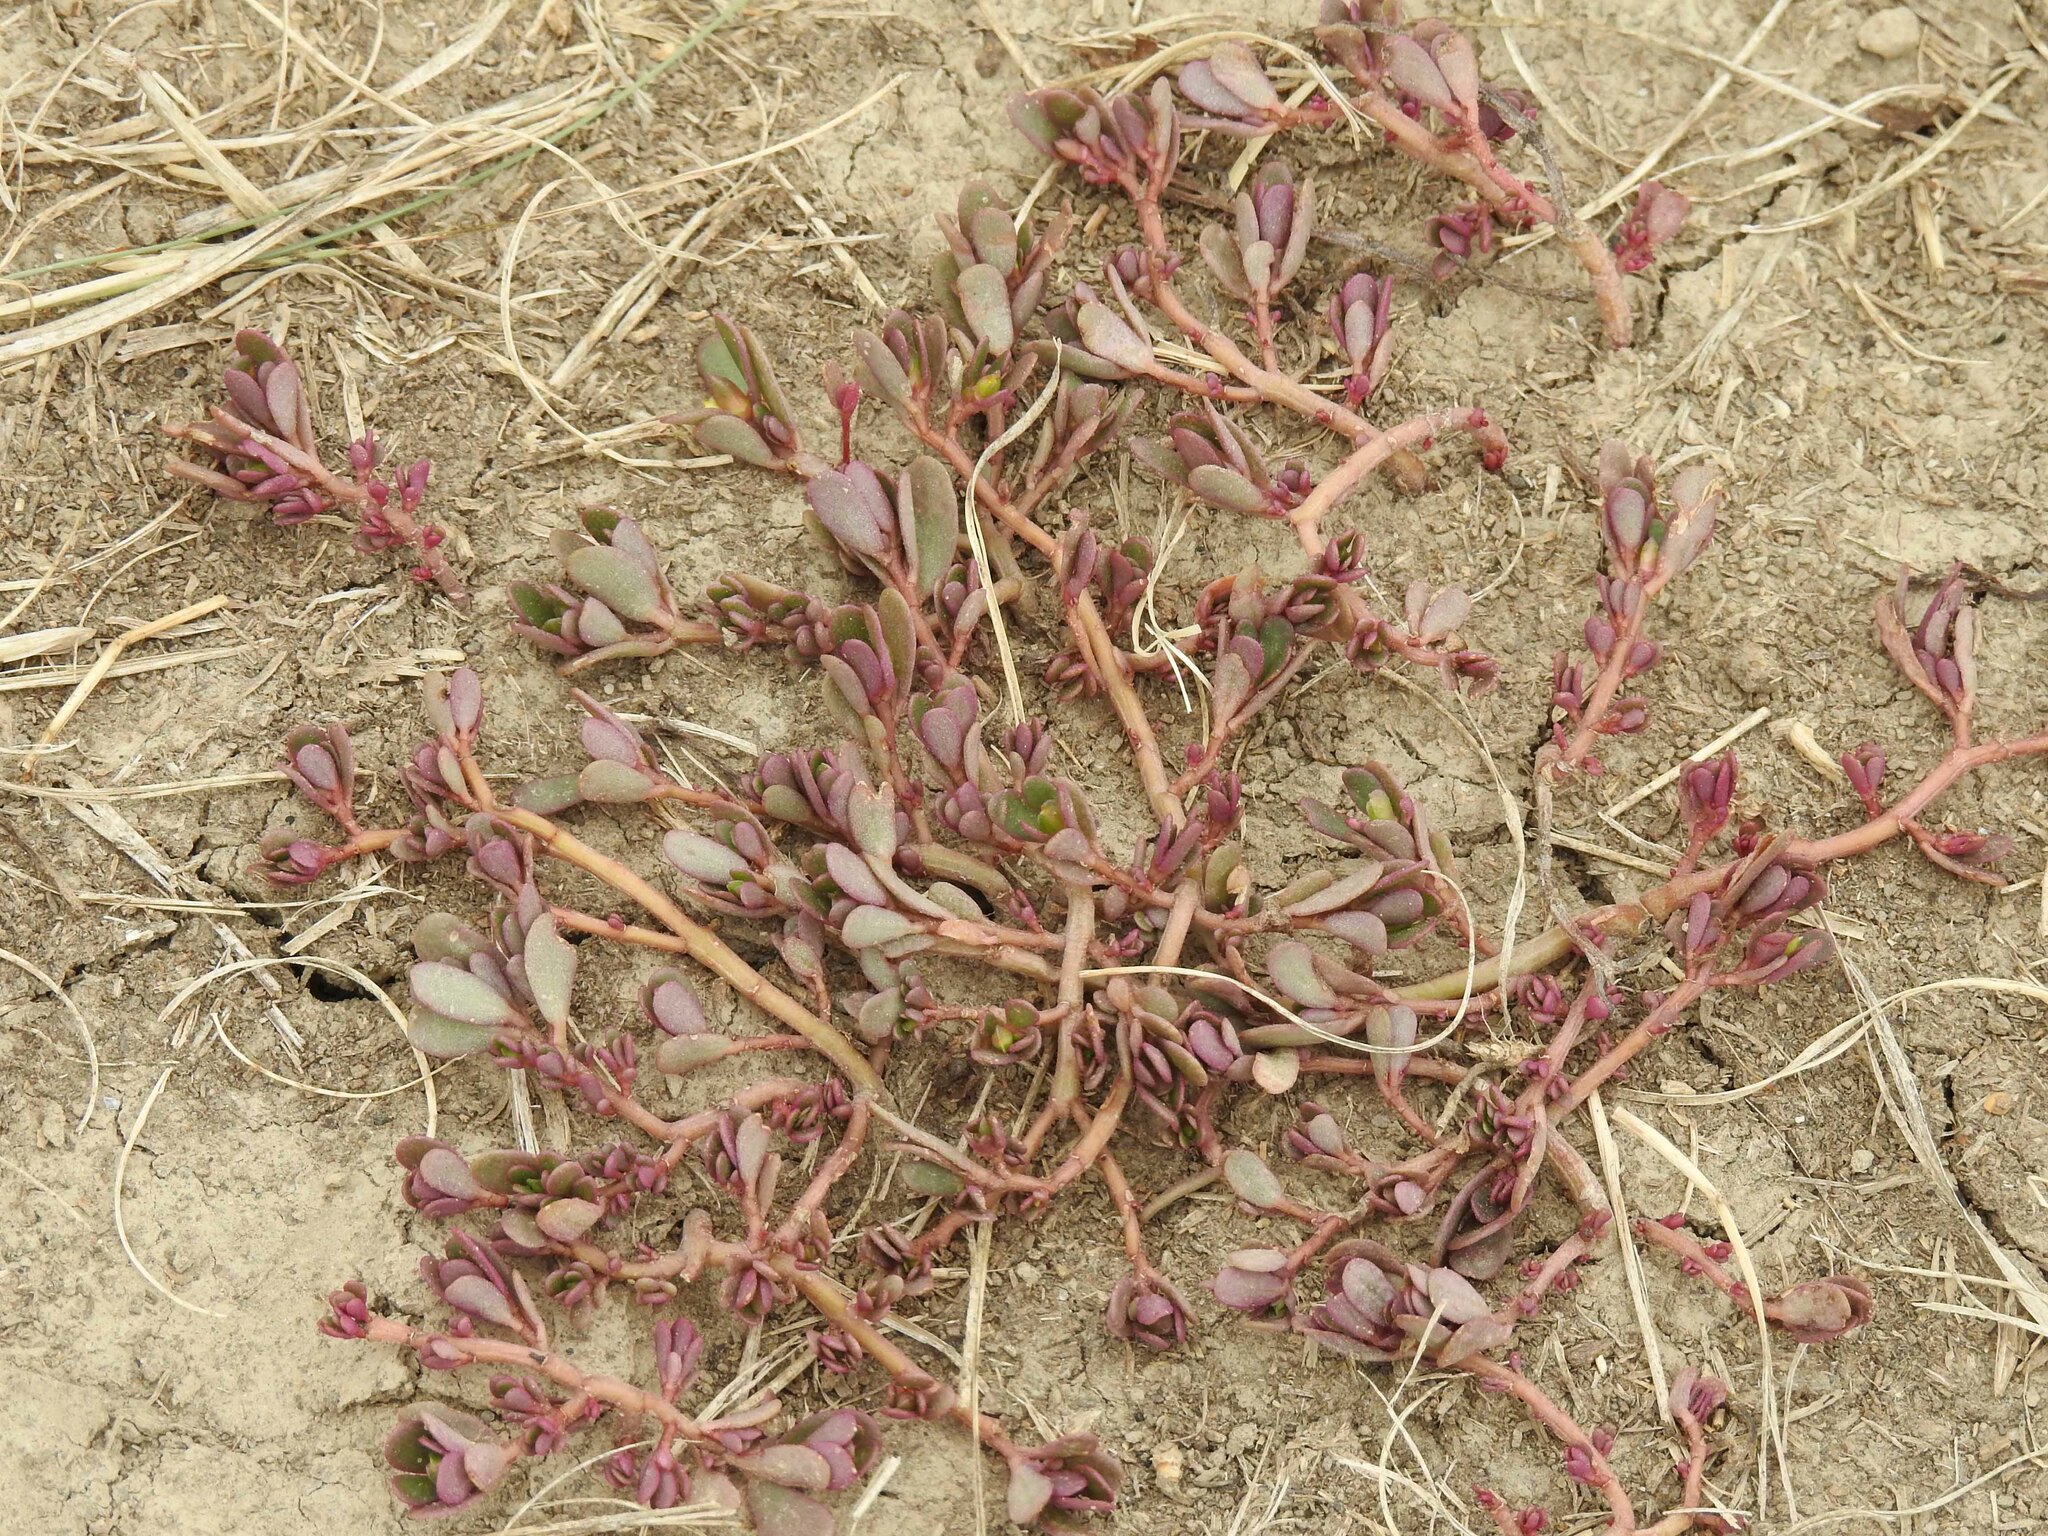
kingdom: Plantae
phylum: Tracheophyta
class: Magnoliopsida
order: Caryophyllales
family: Portulacaceae
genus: Portulaca
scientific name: Portulaca oleracea
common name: Common purslane
